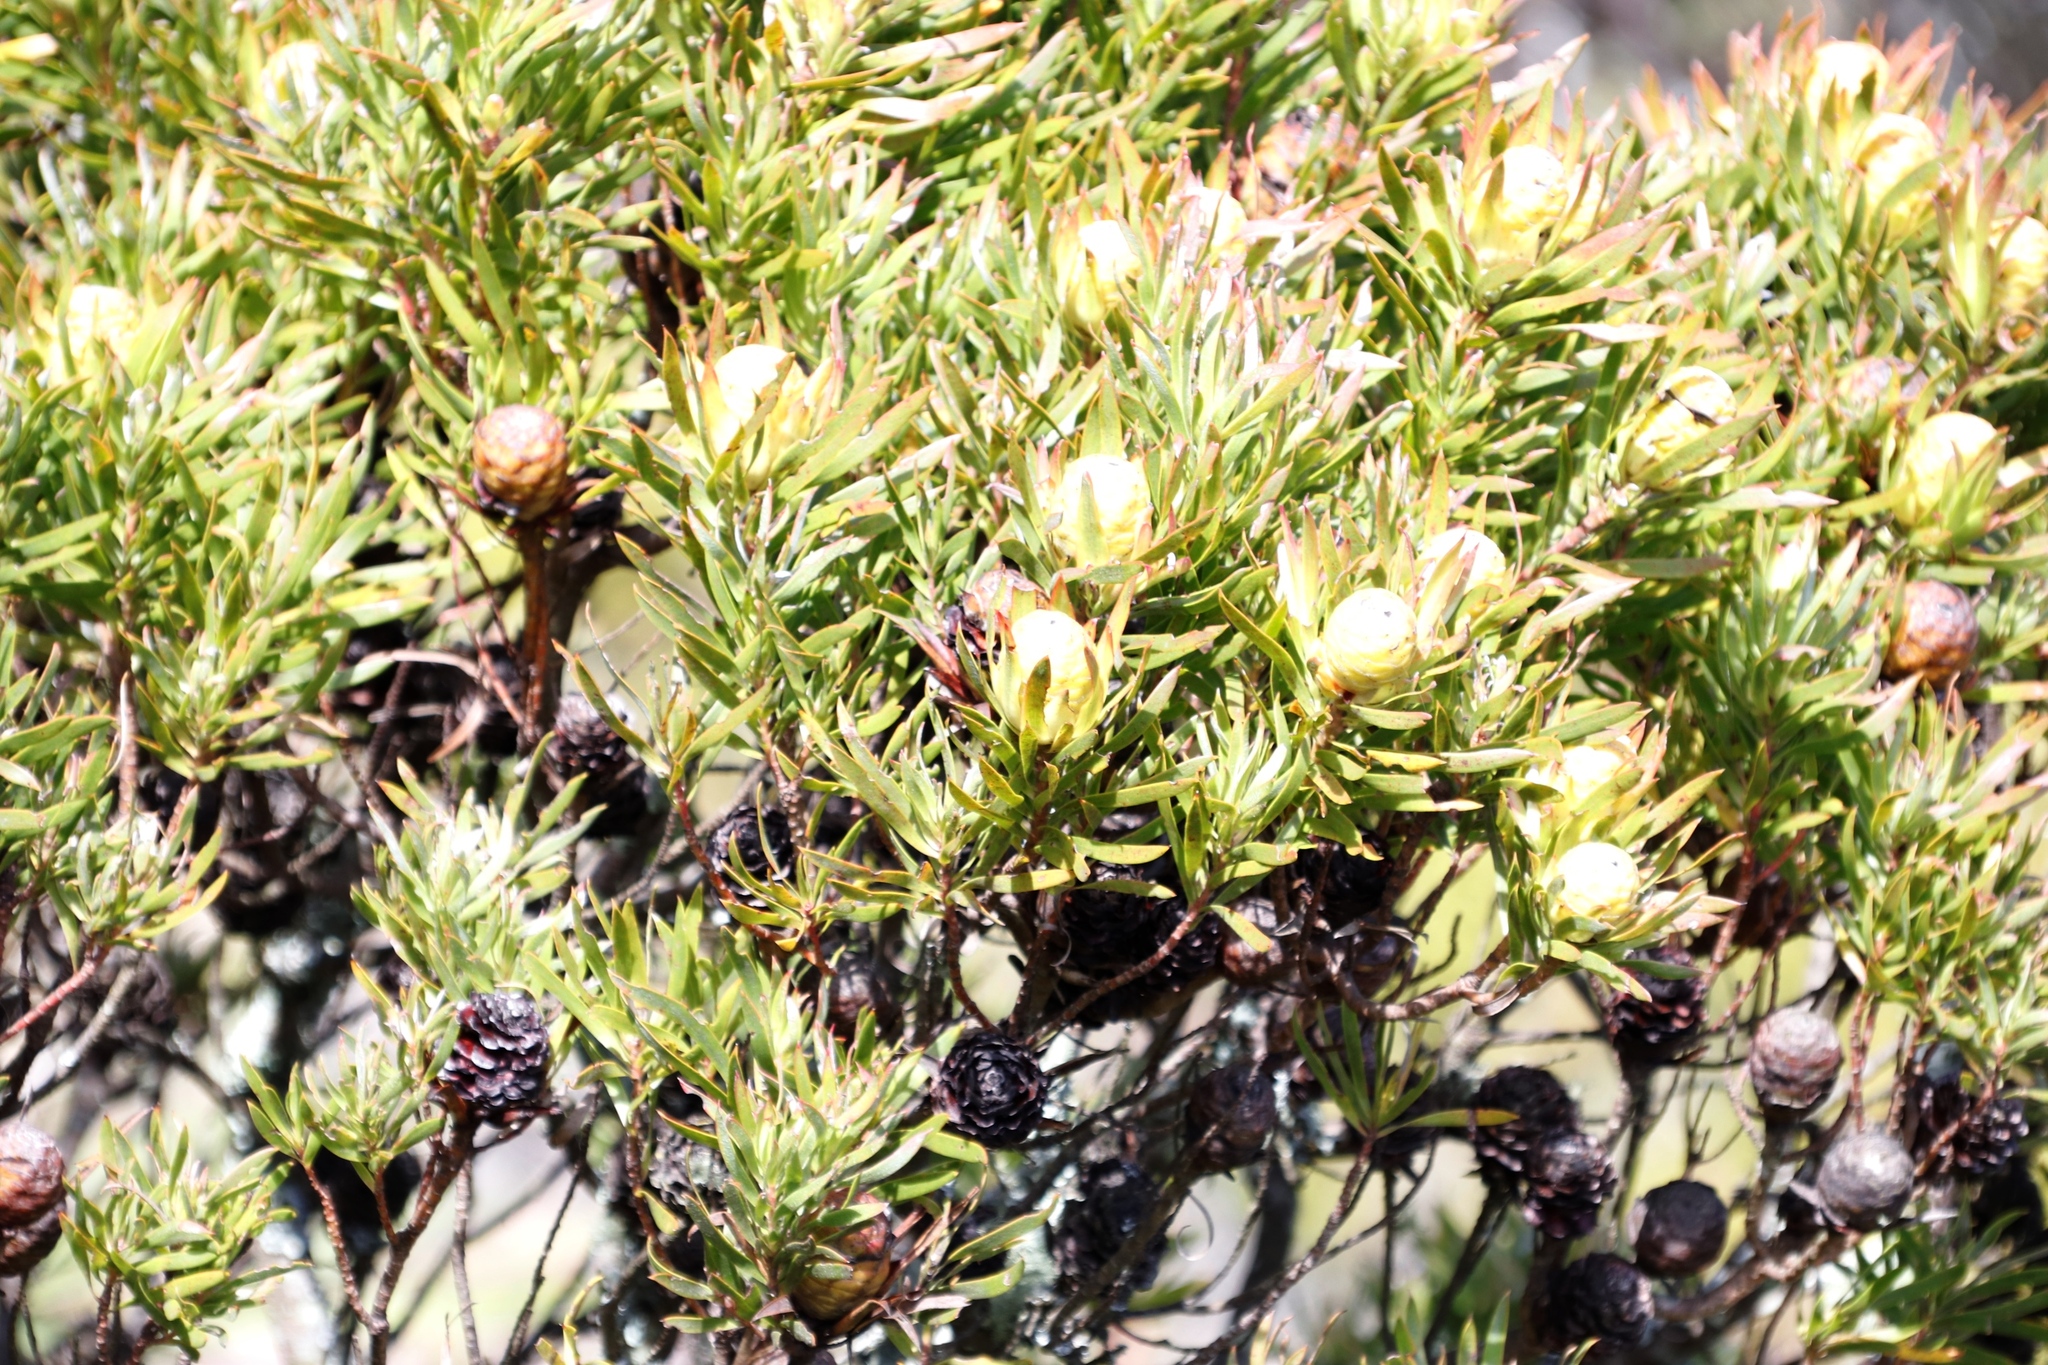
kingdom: Plantae
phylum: Tracheophyta
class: Magnoliopsida
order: Proteales
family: Proteaceae
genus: Leucadendron
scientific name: Leucadendron xanthoconus
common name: Sickle-leaf conebush
